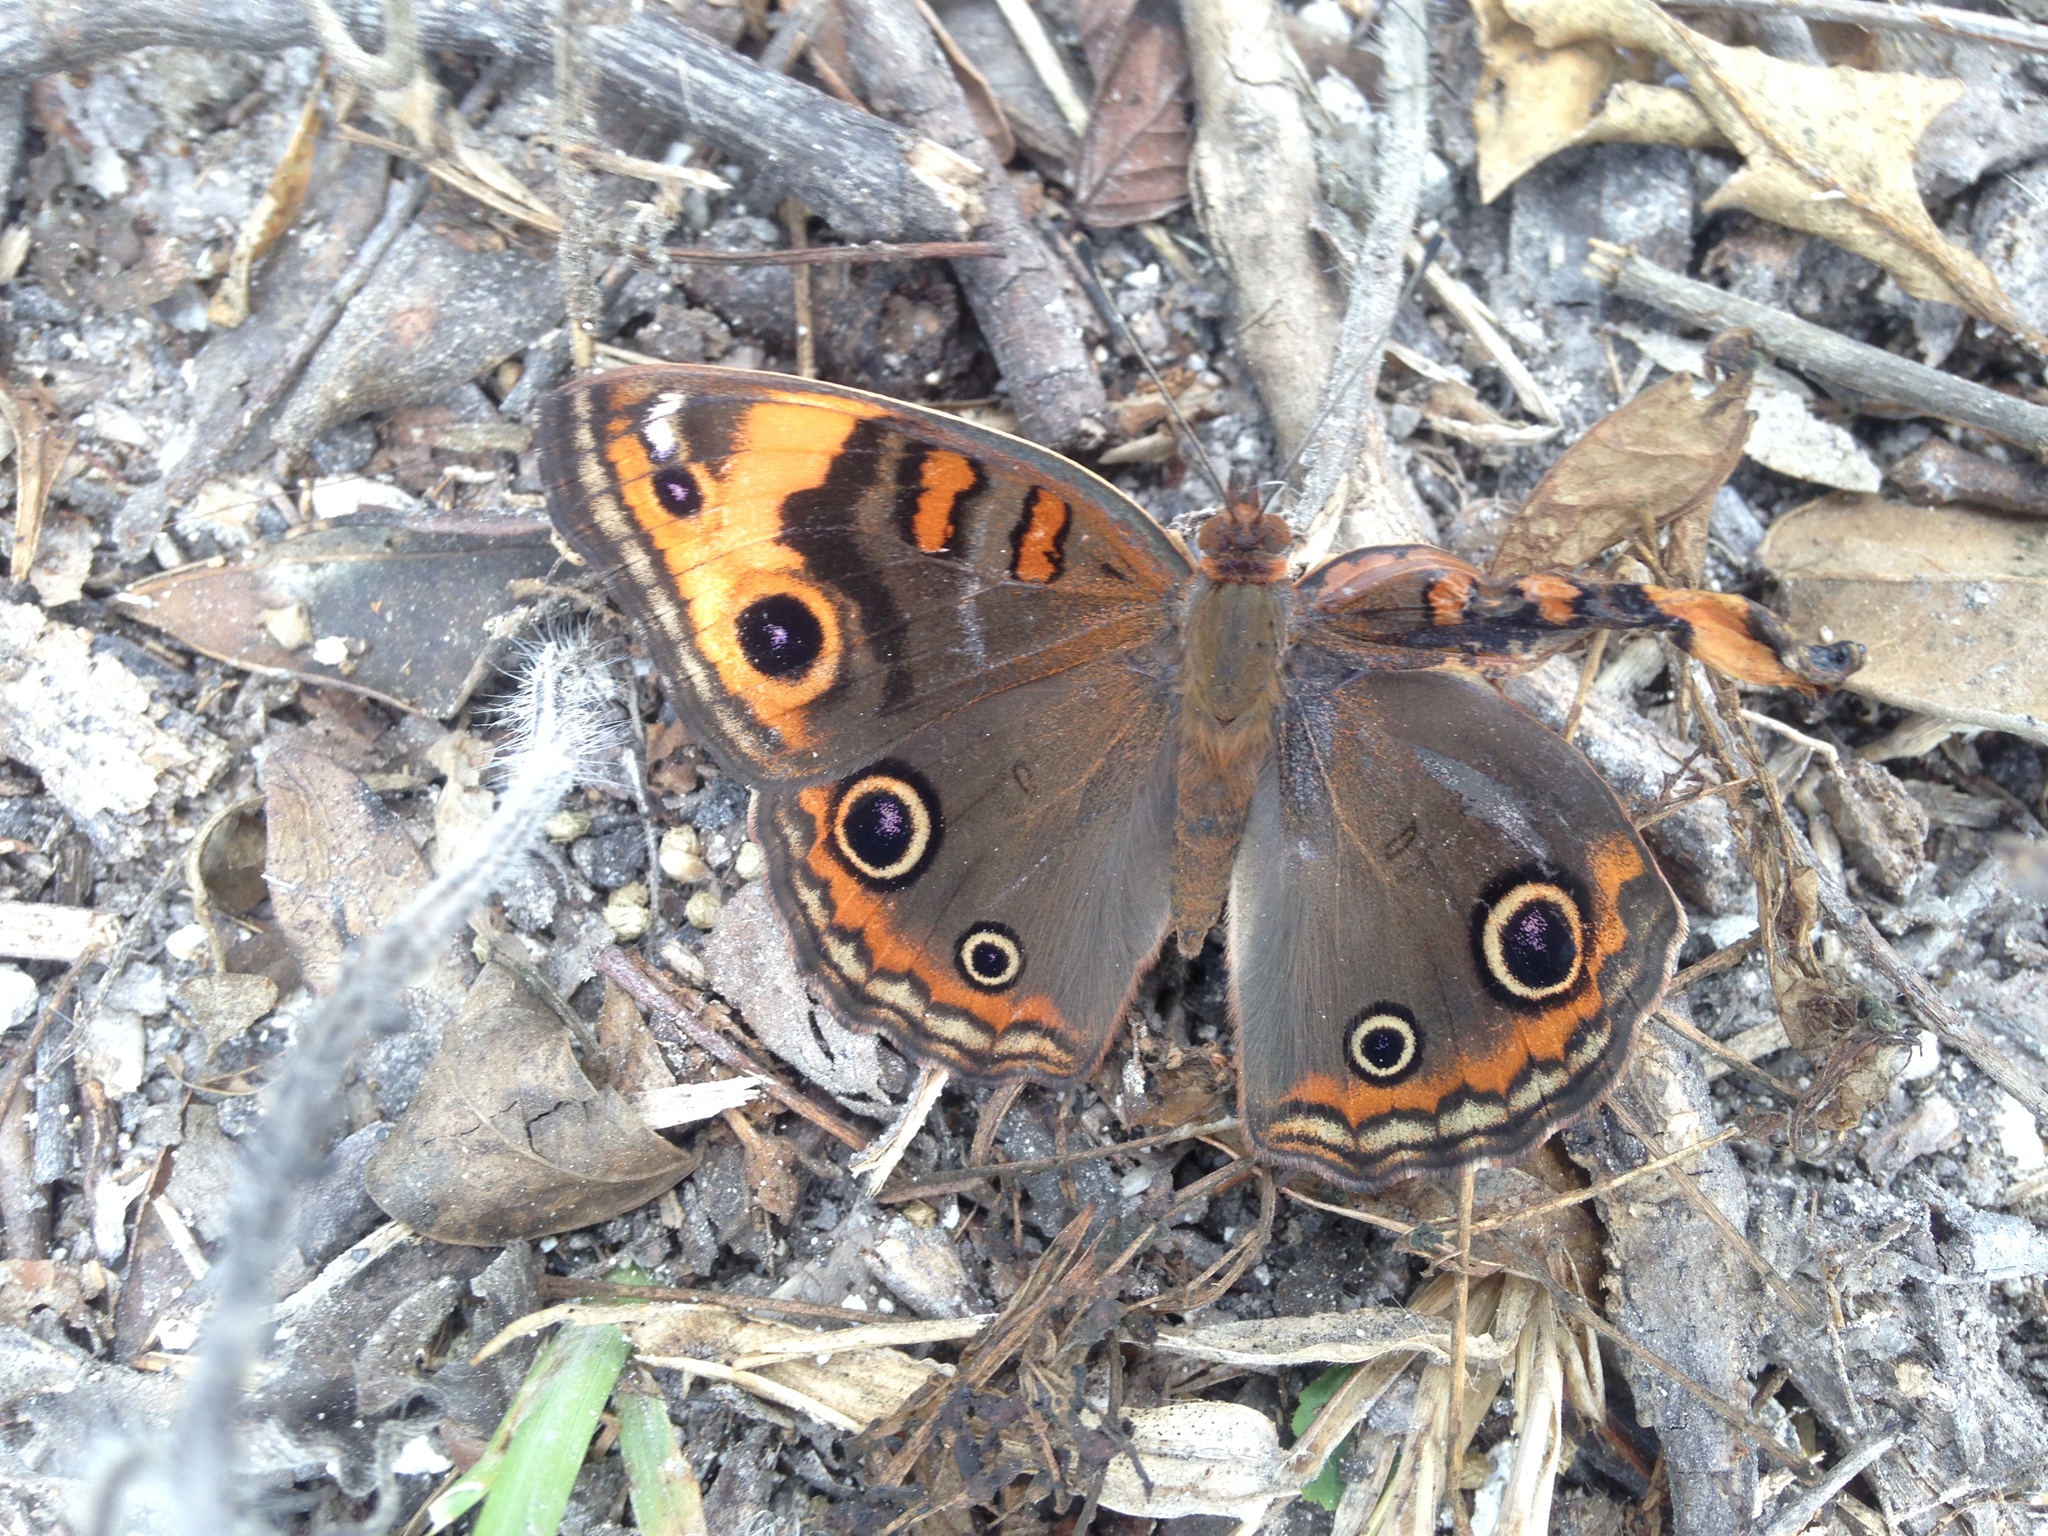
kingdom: Animalia
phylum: Arthropoda
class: Insecta
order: Lepidoptera
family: Nymphalidae
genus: Junonia
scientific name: Junonia neildi
